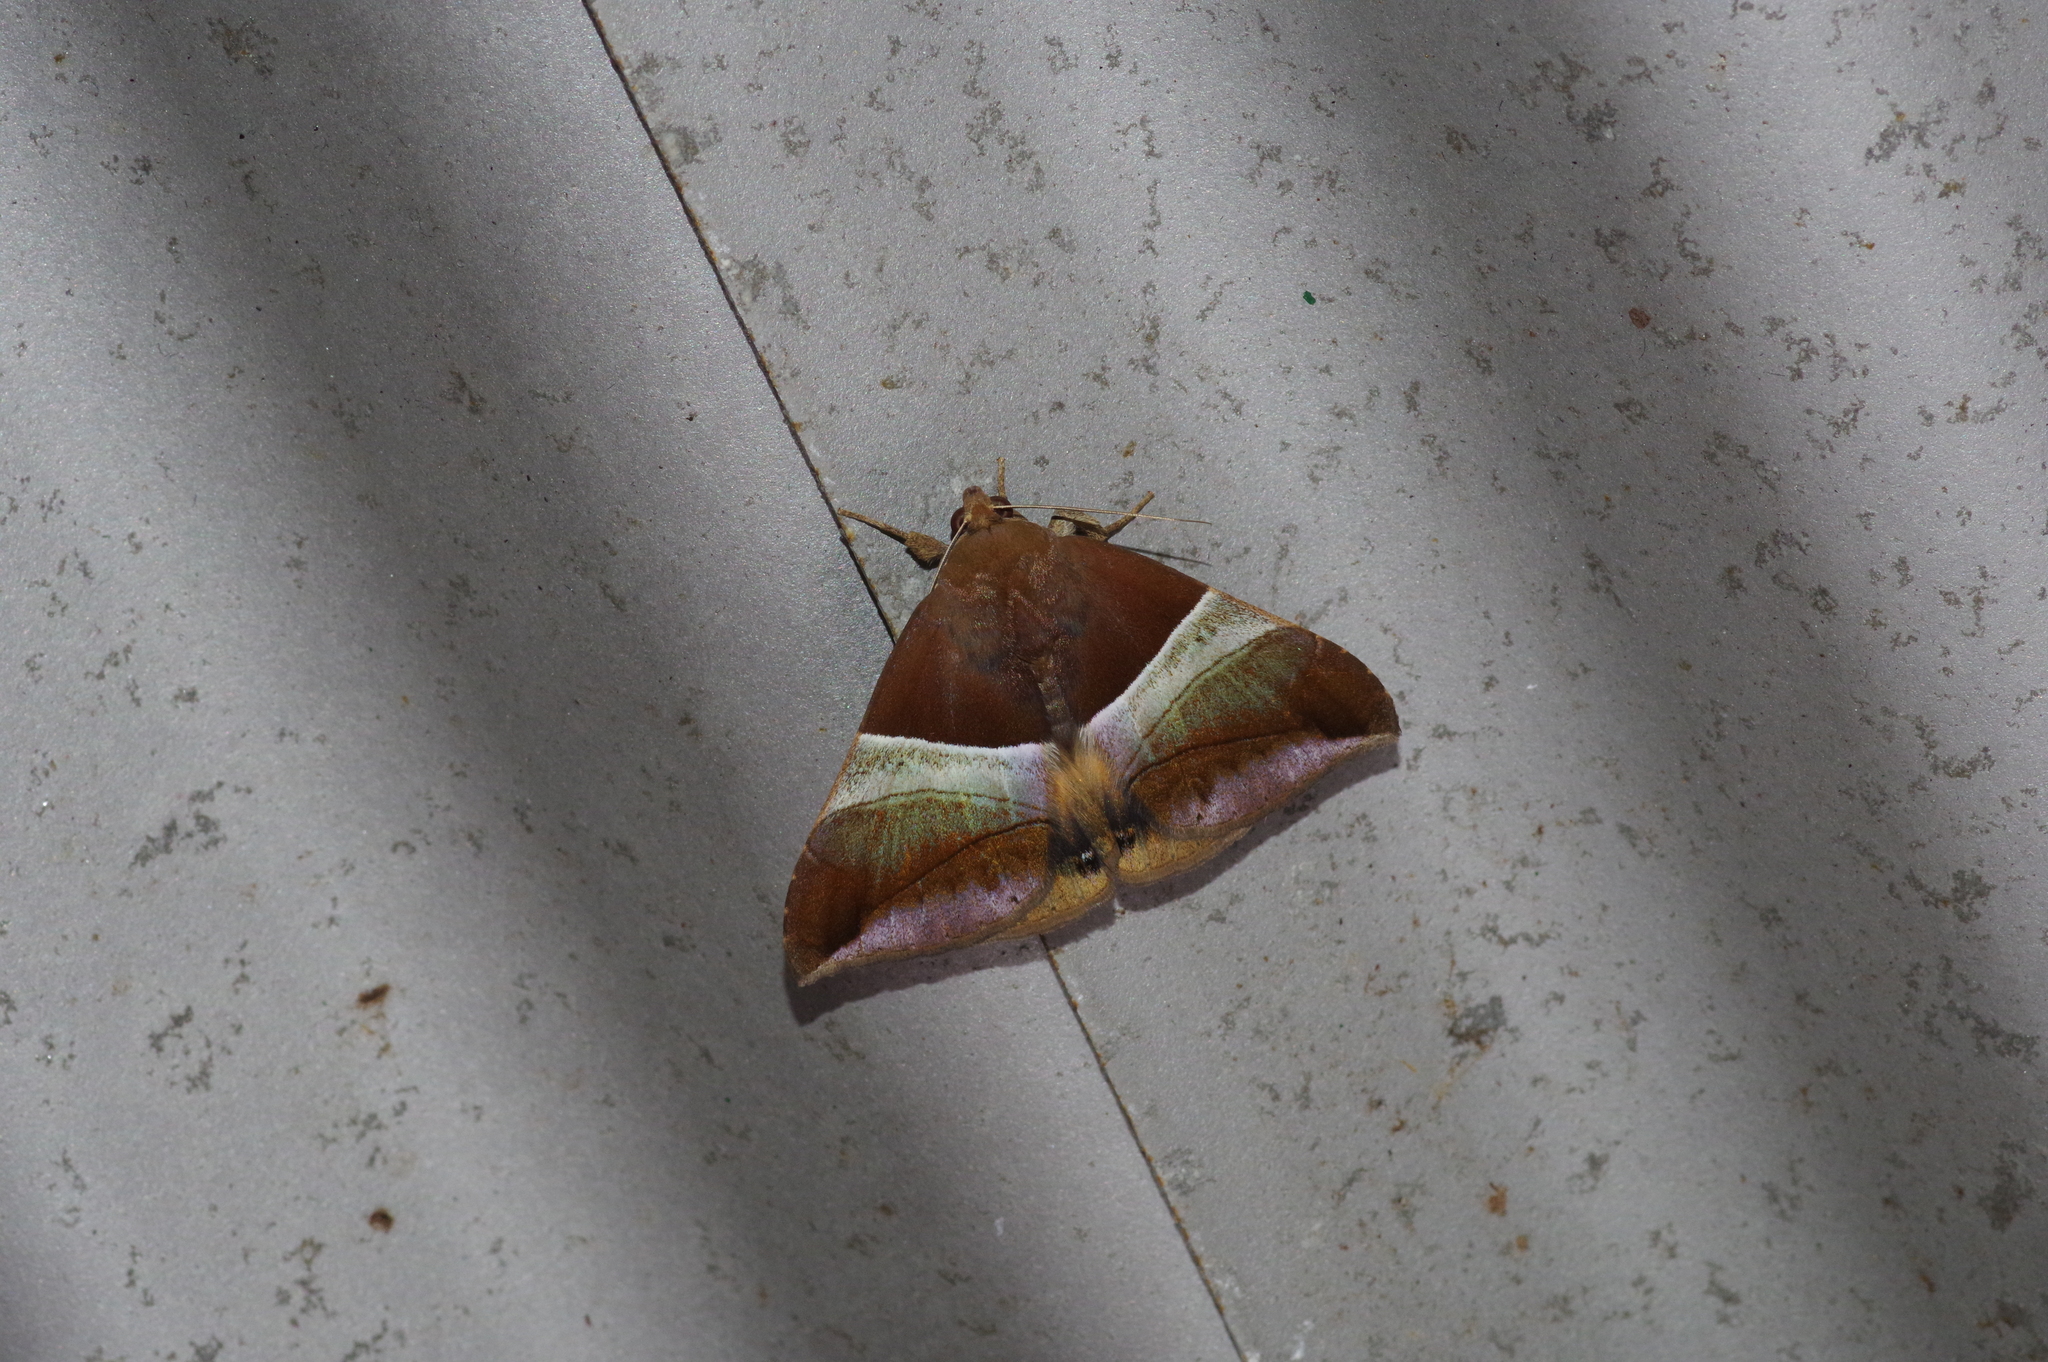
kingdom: Animalia
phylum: Arthropoda
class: Insecta
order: Lepidoptera
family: Erebidae
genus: Bastilla
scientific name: Bastilla fulvotaenia
